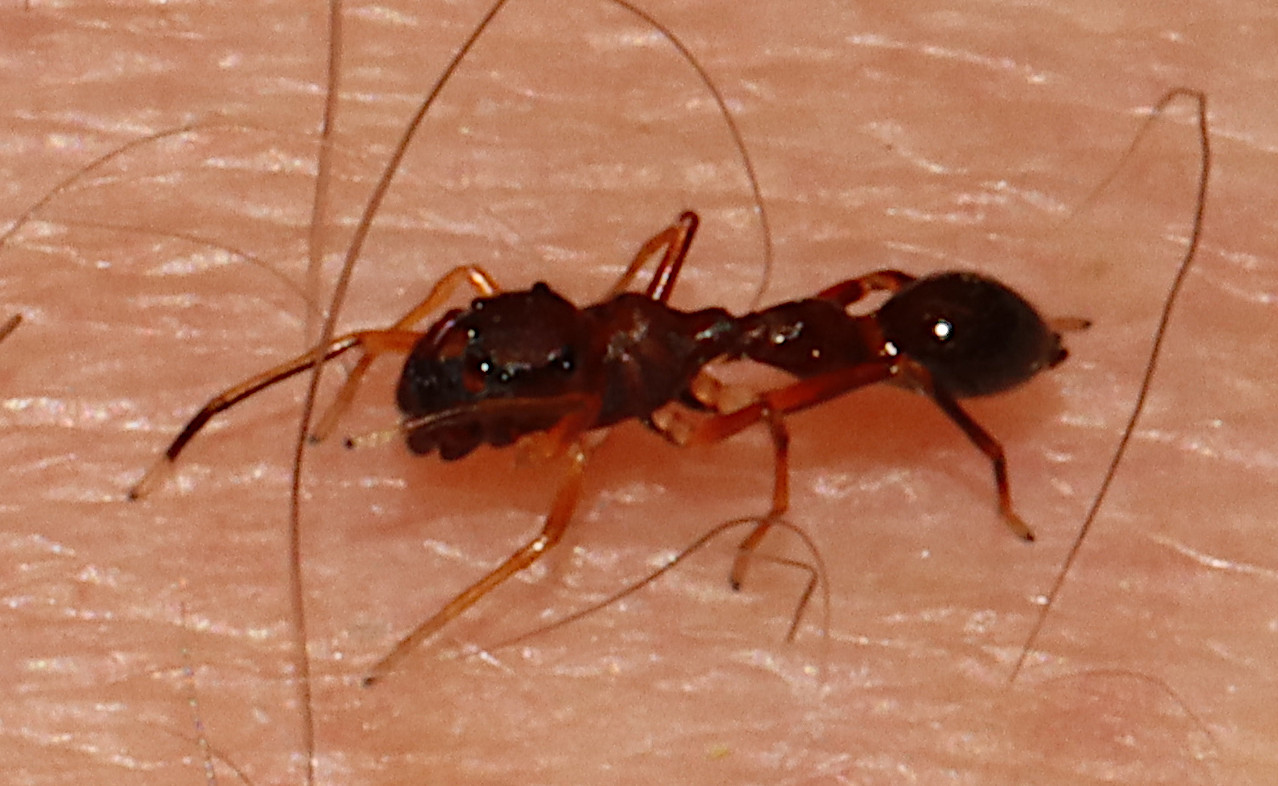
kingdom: Animalia
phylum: Arthropoda
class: Arachnida
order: Araneae
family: Salticidae
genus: Synemosyna
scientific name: Synemosyna formica
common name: Slender ant-mimic jumping spider
